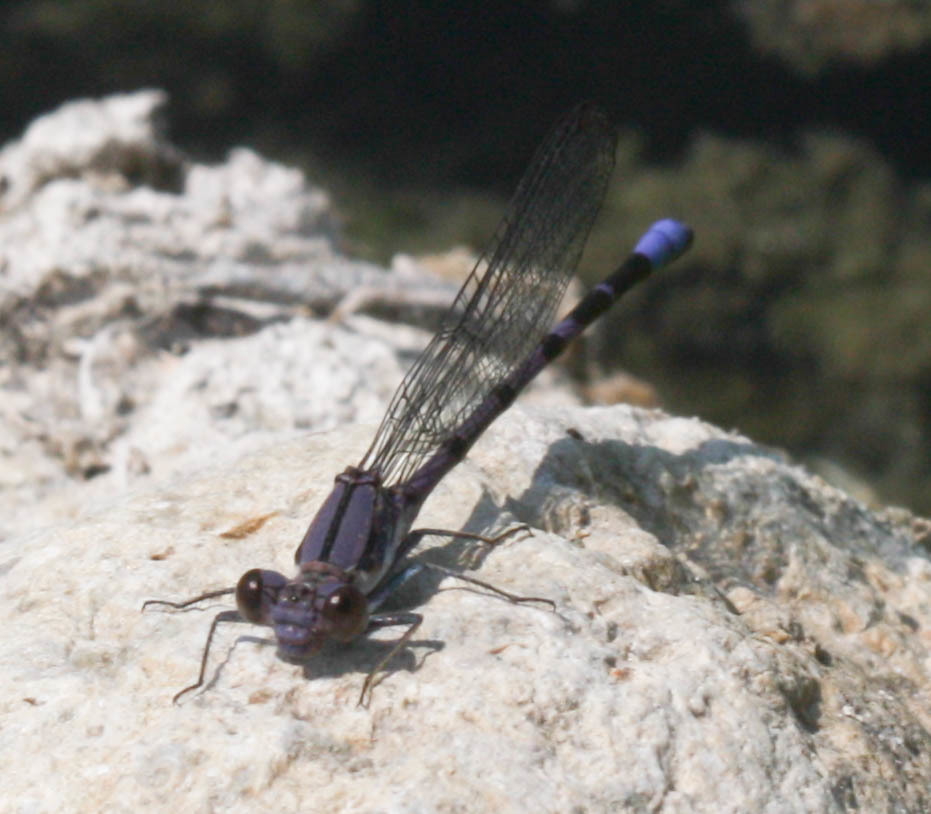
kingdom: Animalia
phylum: Arthropoda
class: Insecta
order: Odonata
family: Coenagrionidae
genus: Argia
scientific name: Argia emma
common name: Emma's dancer
